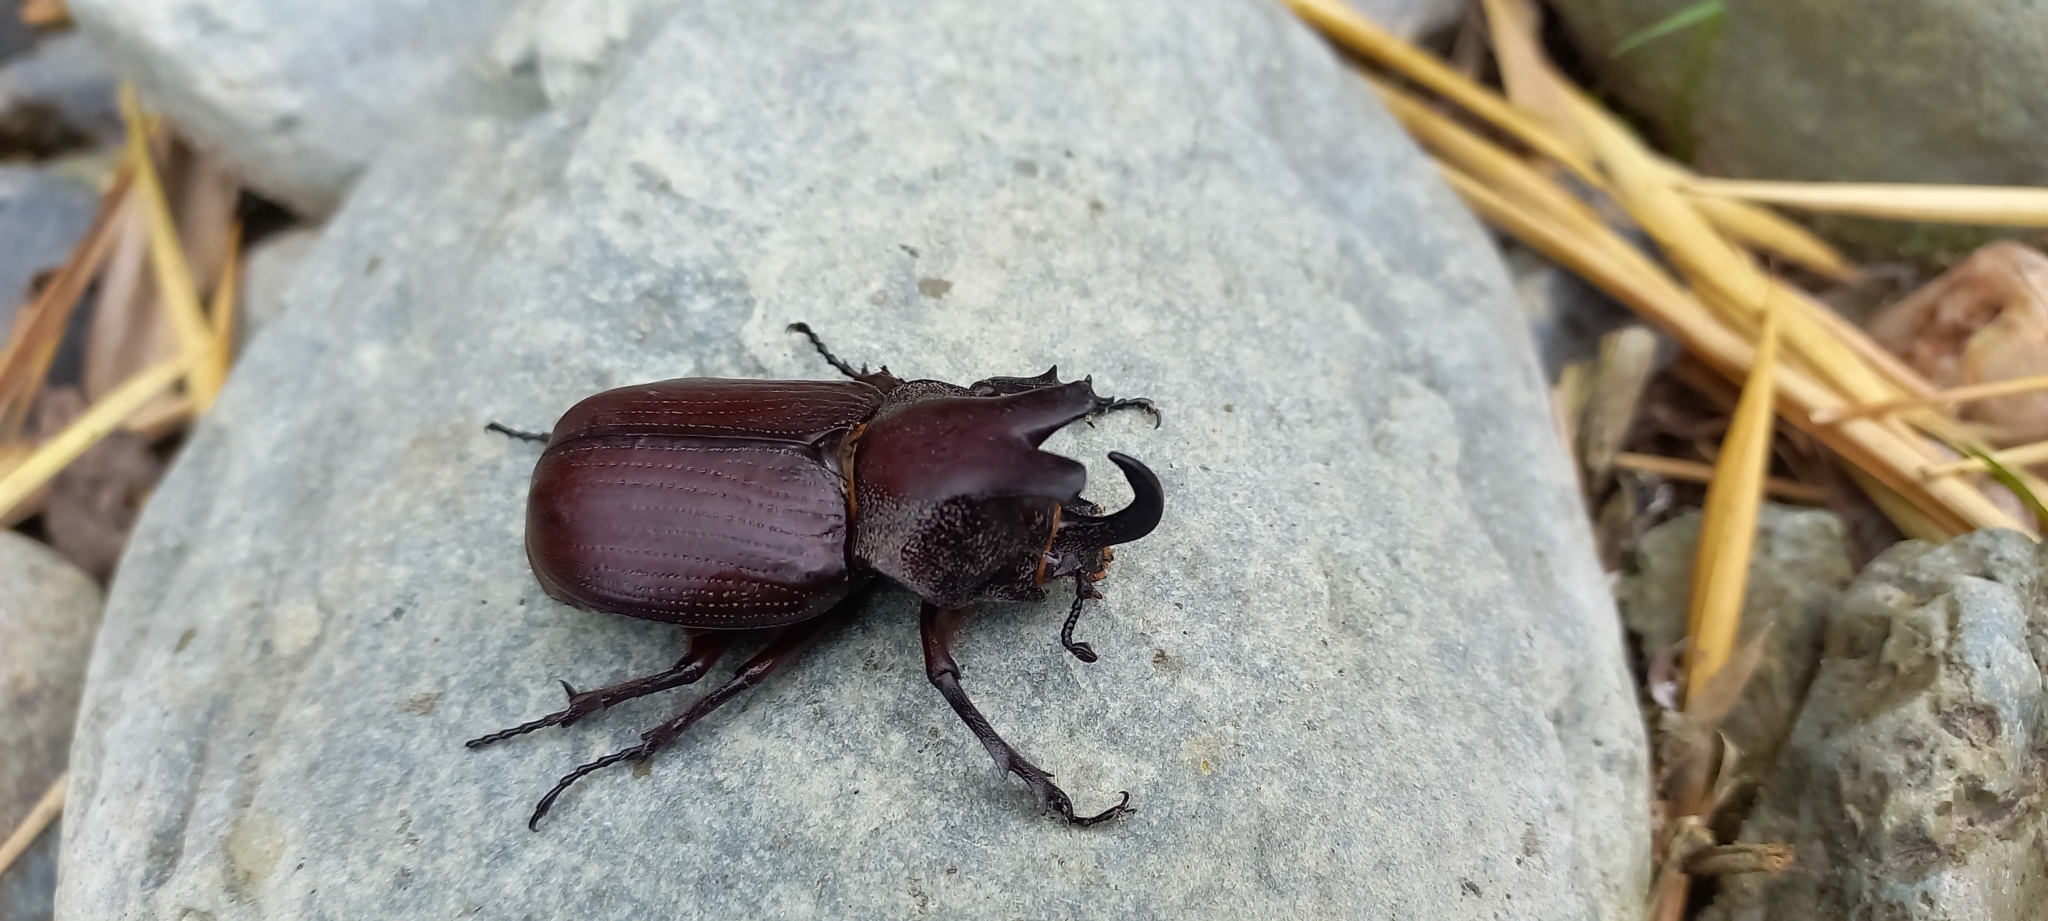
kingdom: Animalia
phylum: Arthropoda
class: Insecta
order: Coleoptera
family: Scarabaeidae
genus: Coelosis
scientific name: Coelosis biloba
